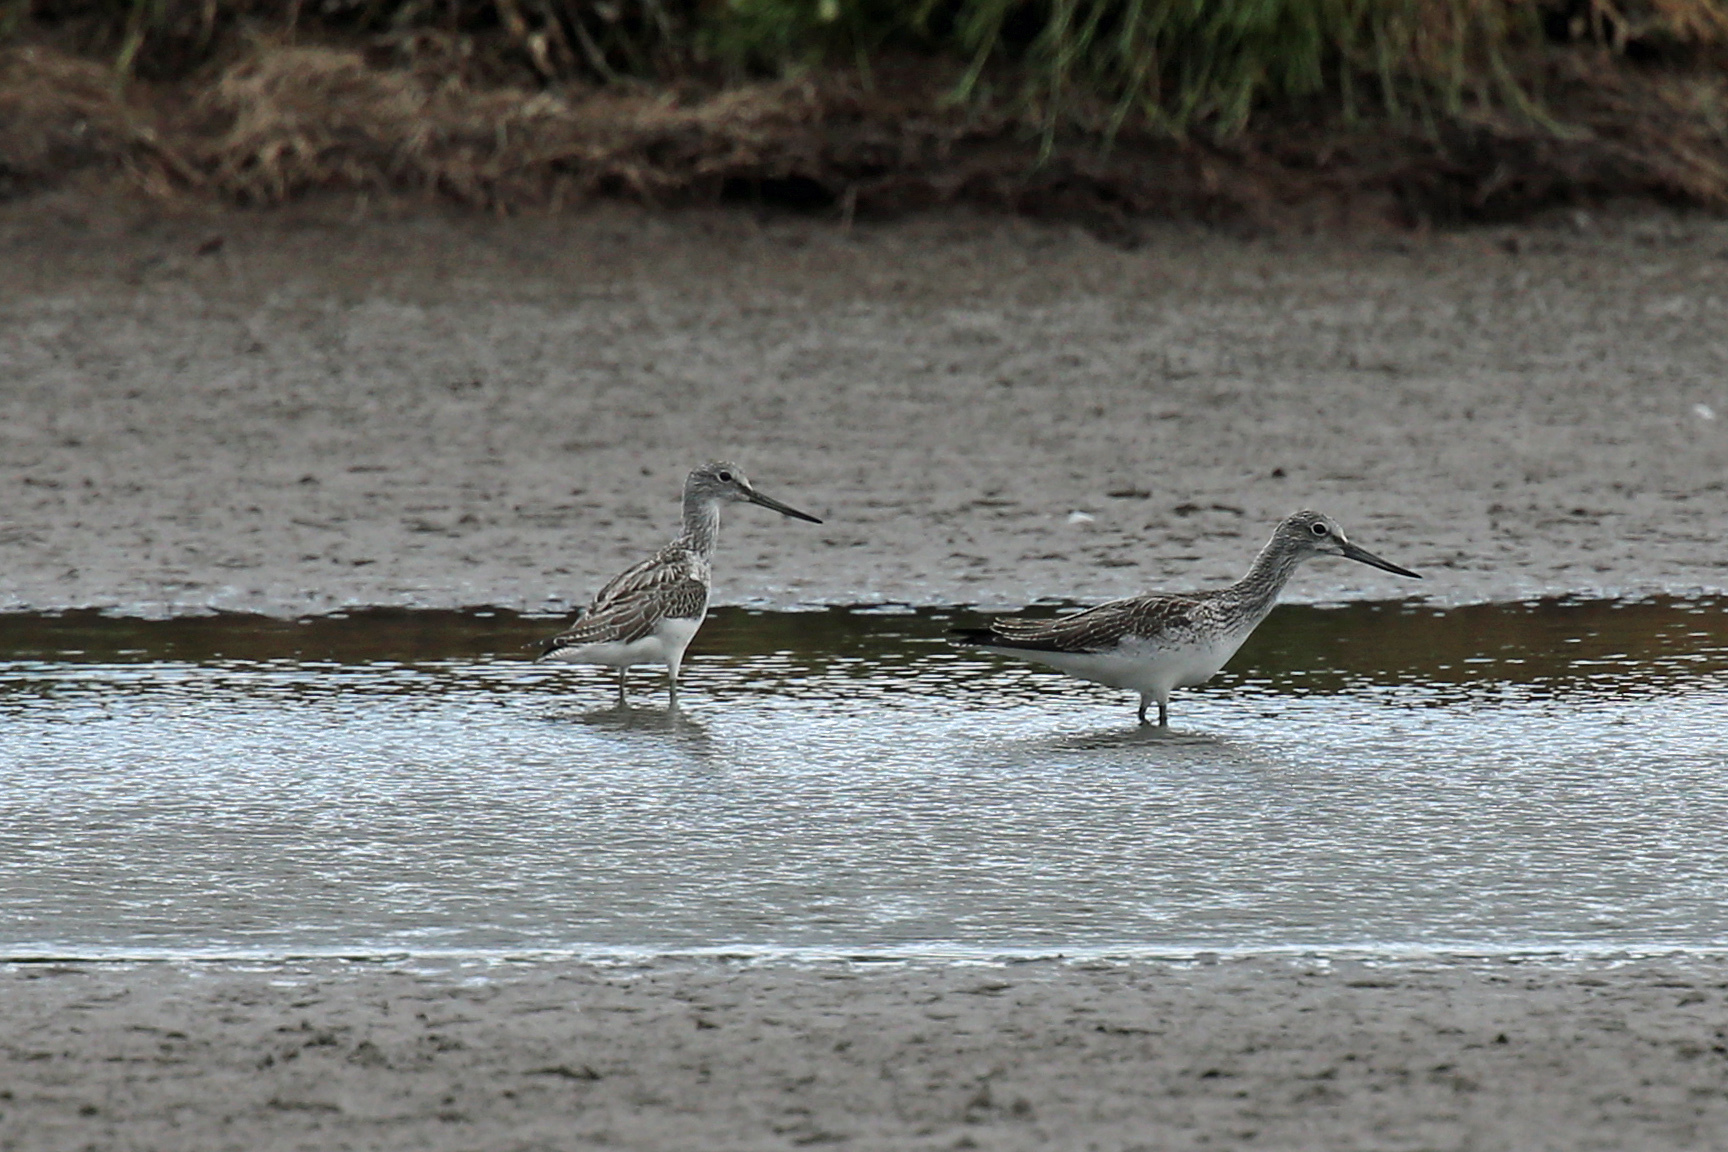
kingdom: Animalia
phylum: Chordata
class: Aves
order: Charadriiformes
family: Scolopacidae
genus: Tringa
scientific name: Tringa nebularia
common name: Common greenshank
